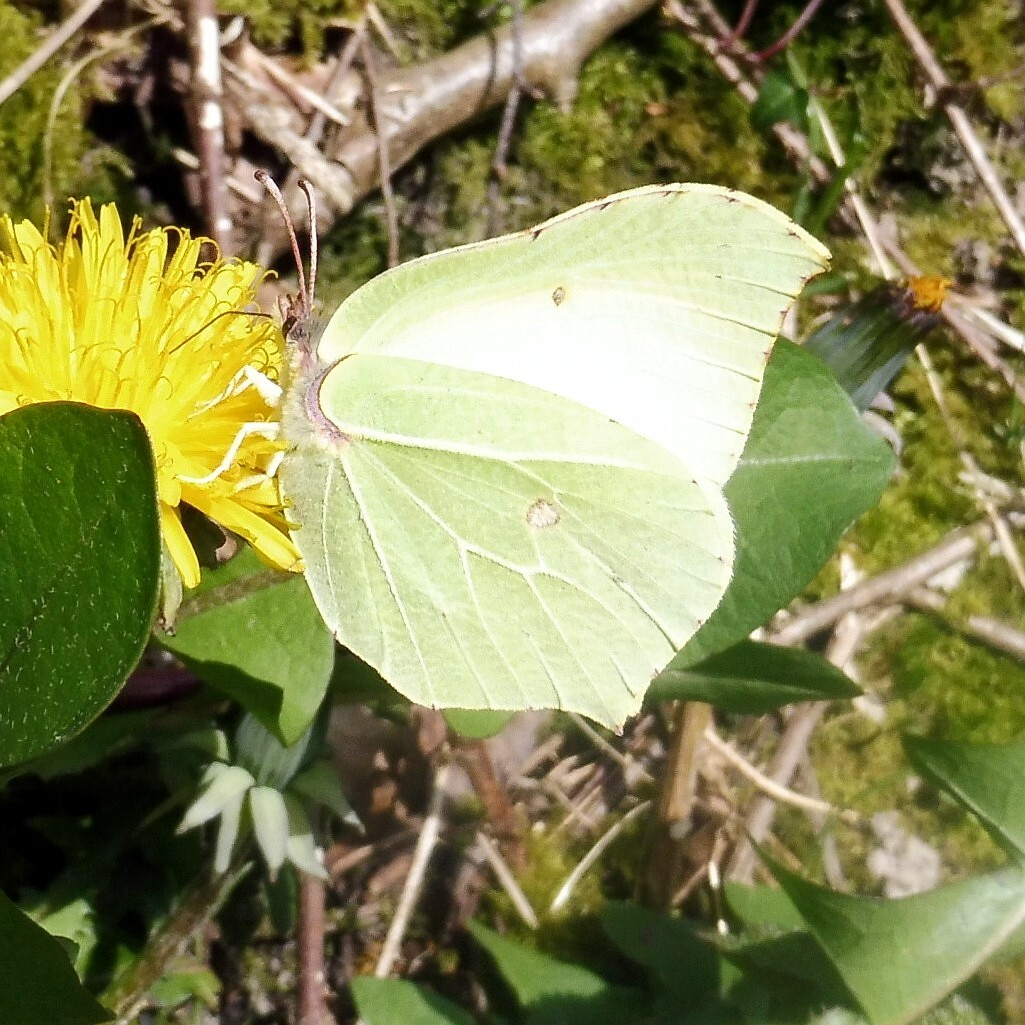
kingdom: Animalia
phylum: Arthropoda
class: Insecta
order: Lepidoptera
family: Pieridae
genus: Gonepteryx
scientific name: Gonepteryx rhamni
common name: Brimstone
